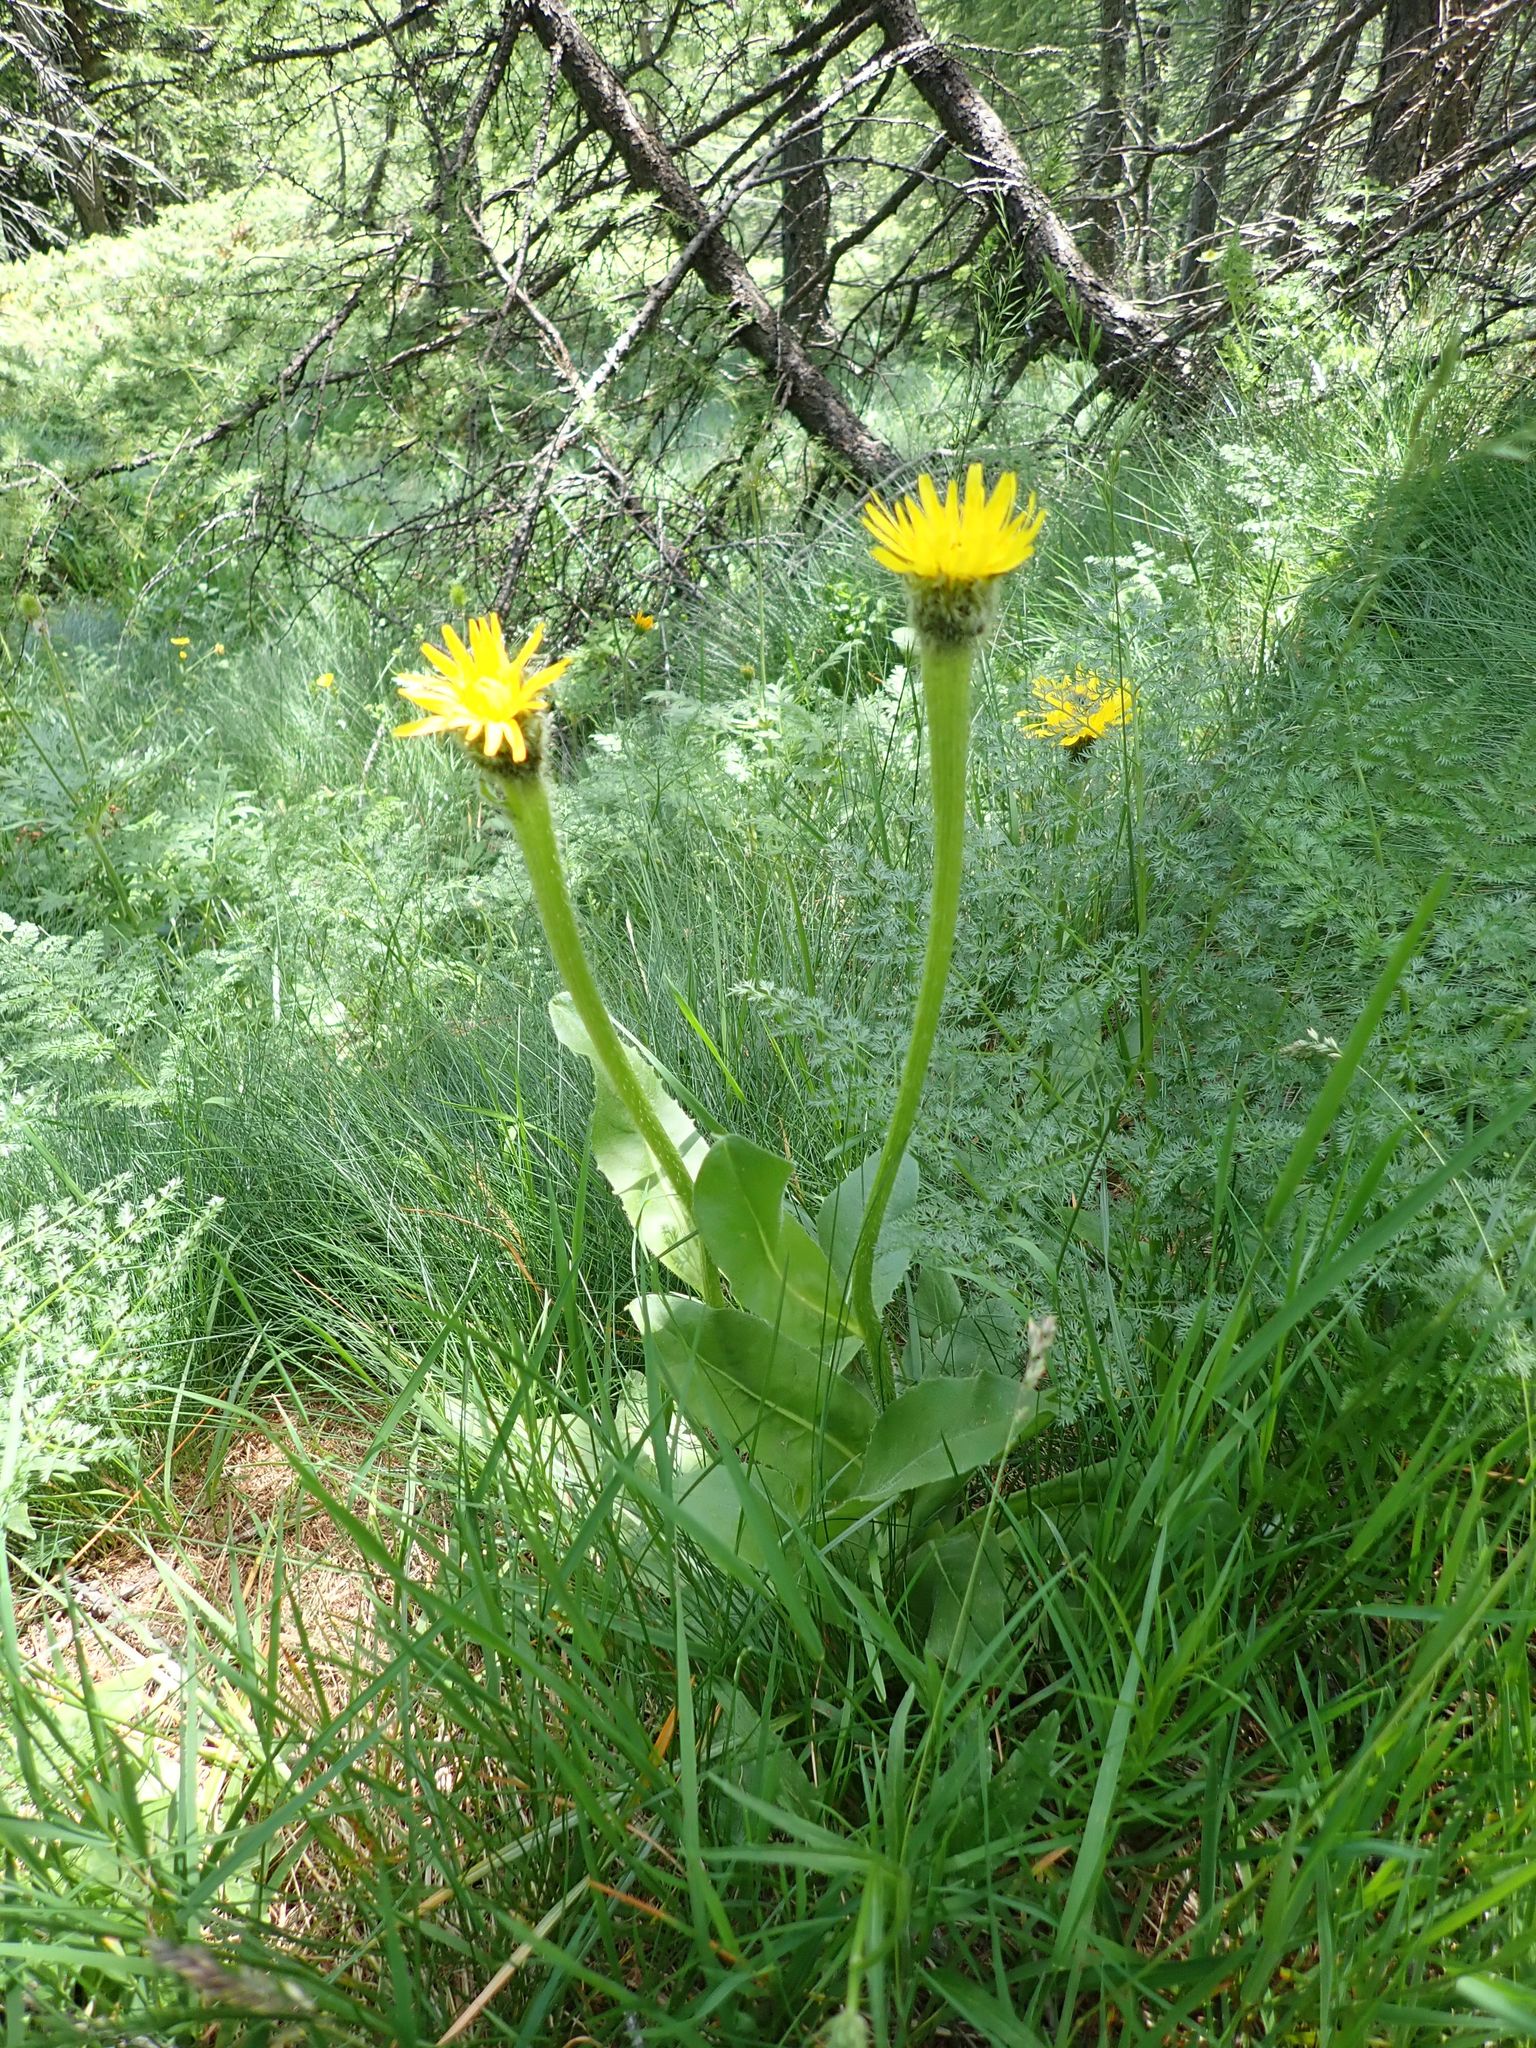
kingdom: Plantae
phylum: Tracheophyta
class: Magnoliopsida
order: Asterales
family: Asteraceae
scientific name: Asteraceae
